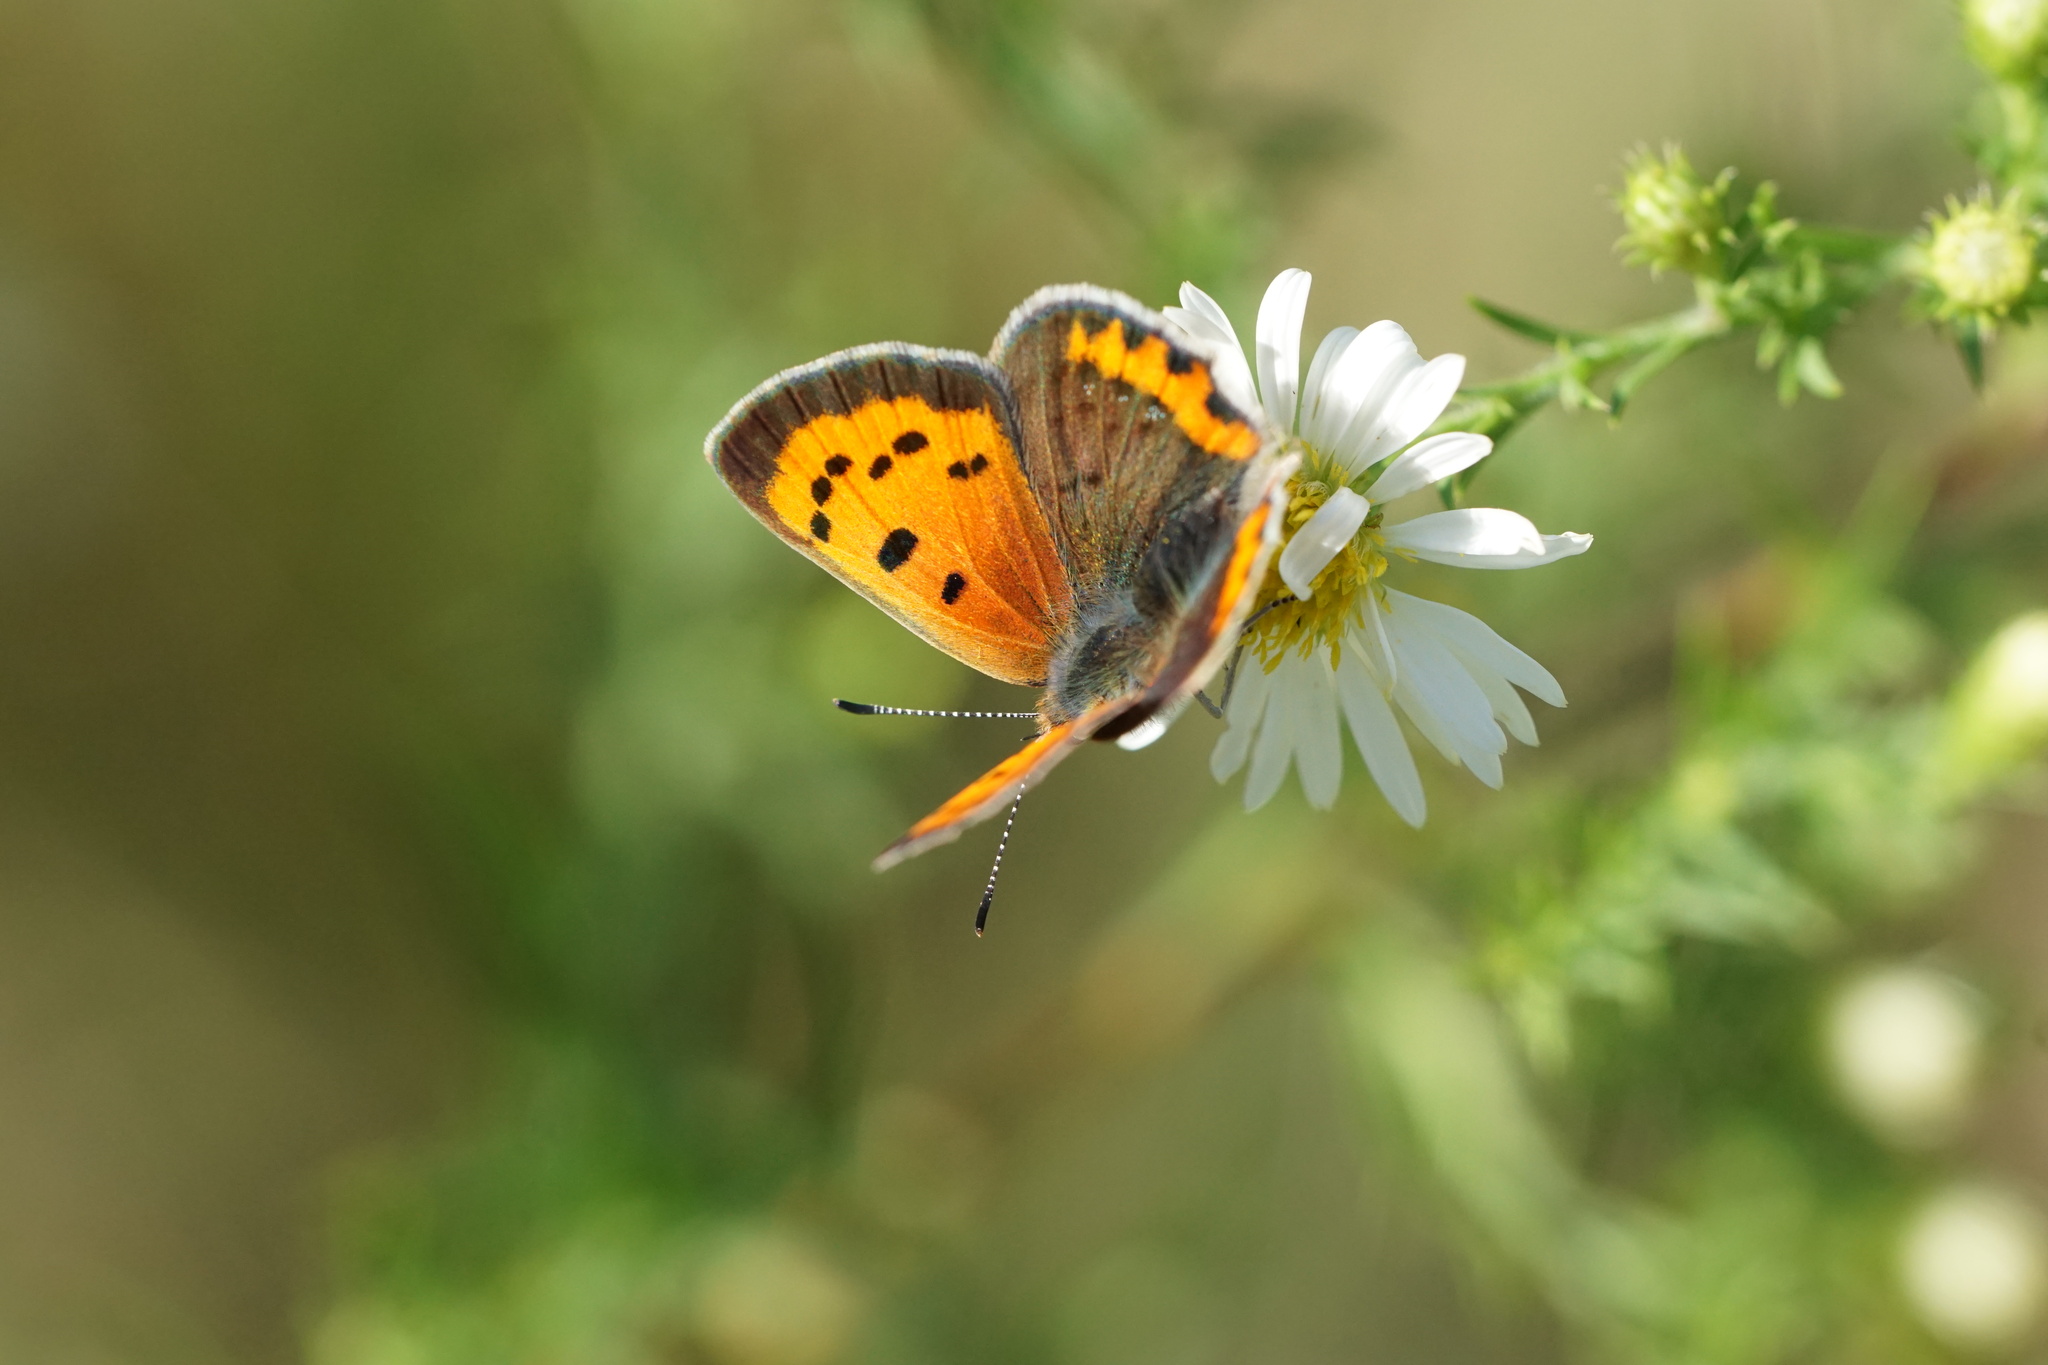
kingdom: Animalia
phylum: Arthropoda
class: Insecta
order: Lepidoptera
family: Lycaenidae
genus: Lycaena
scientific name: Lycaena hypophlaeas
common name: American copper
